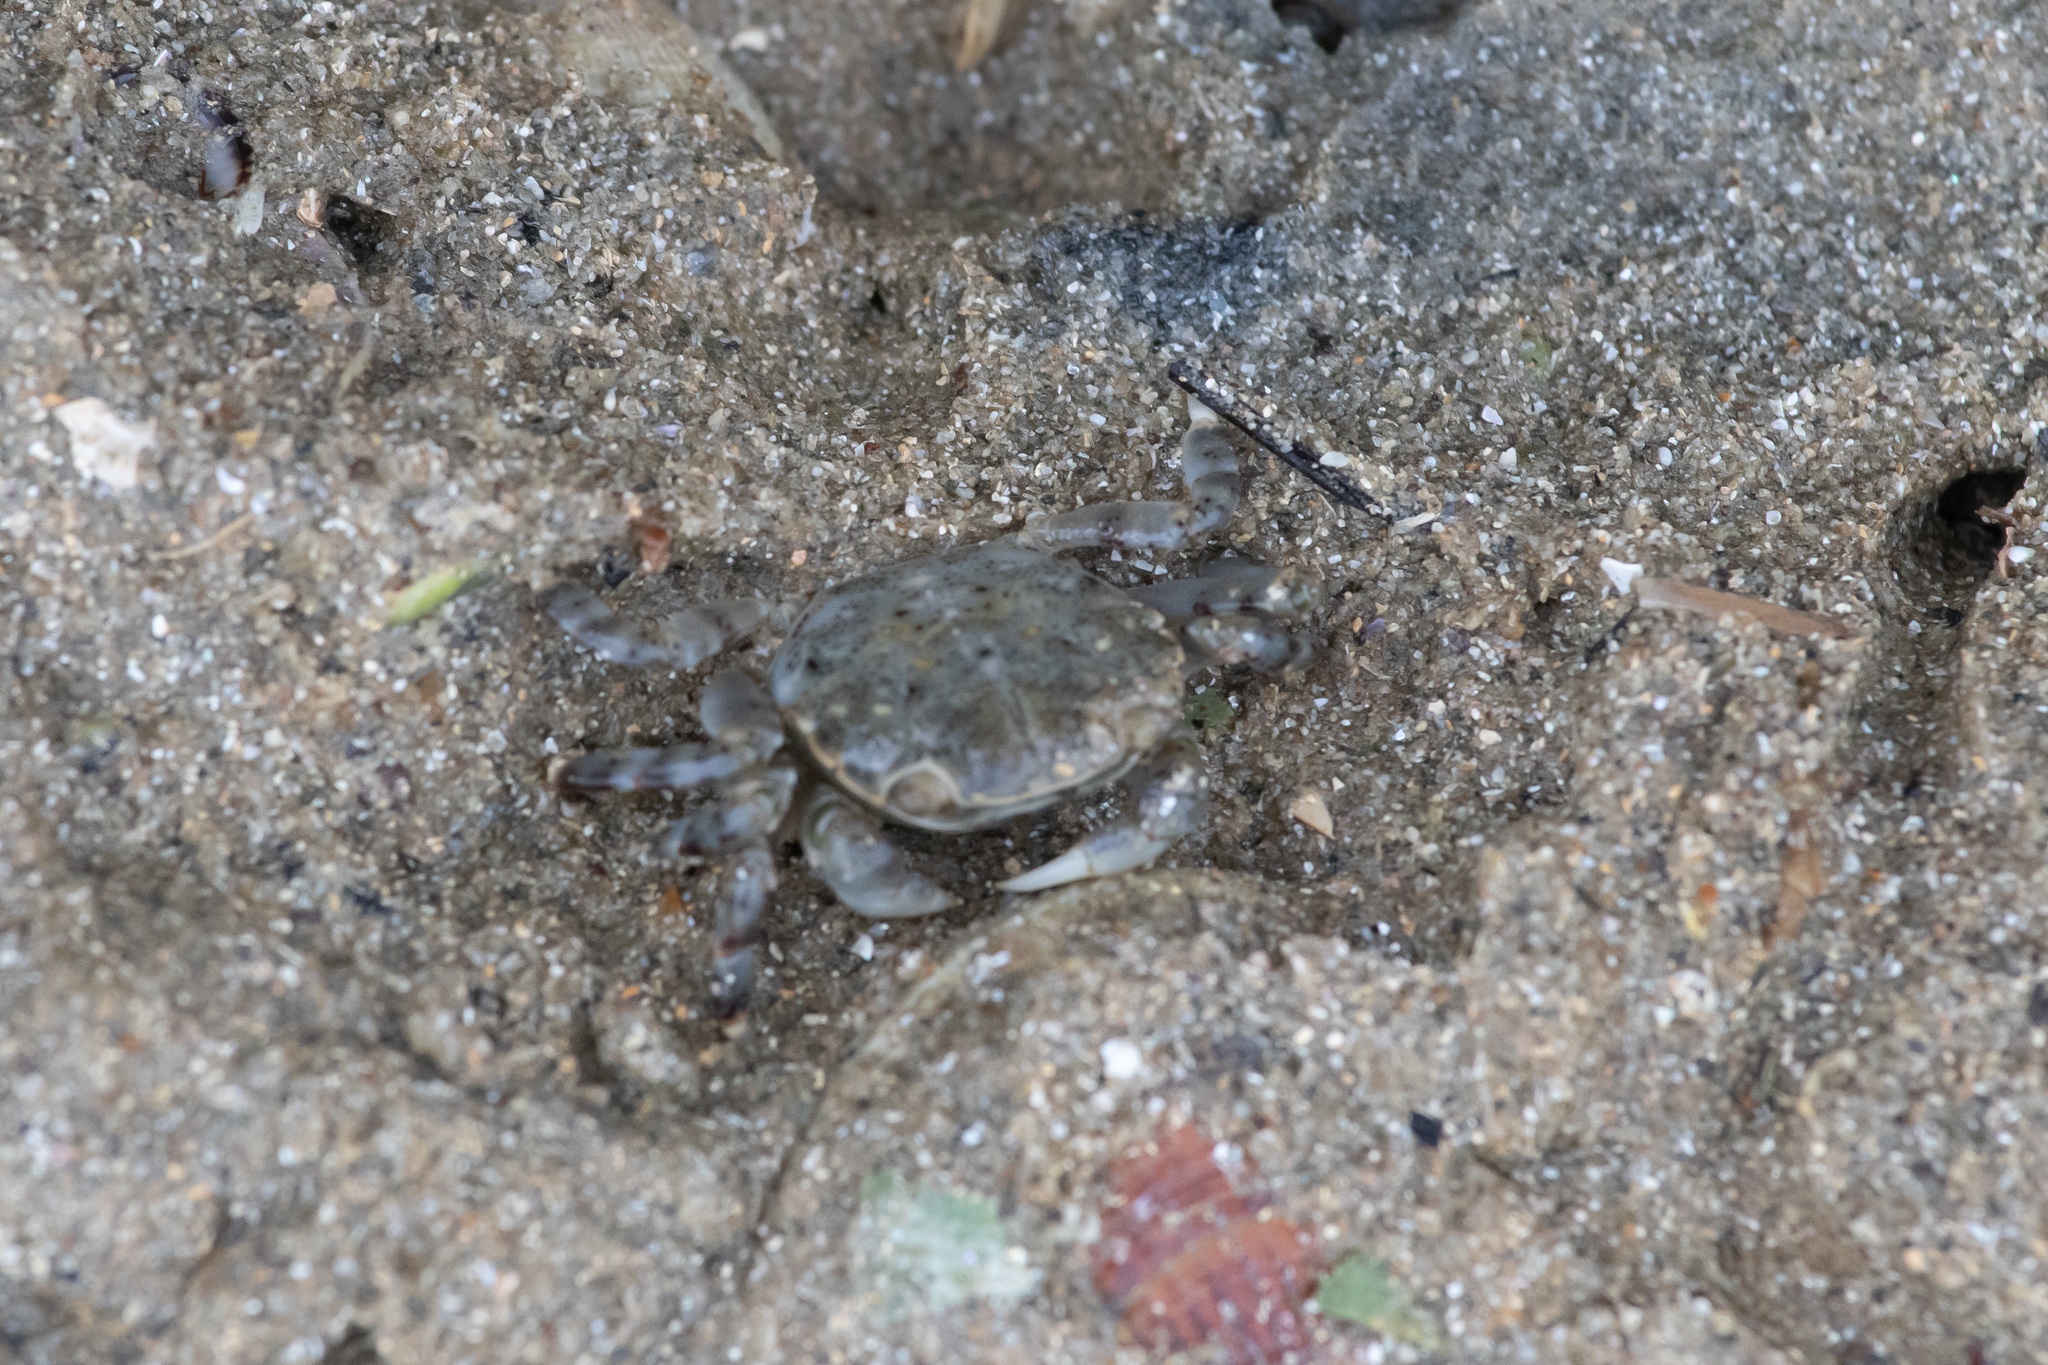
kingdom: Animalia
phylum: Arthropoda
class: Malacostraca
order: Decapoda
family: Varunidae
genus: Hemigrapsus
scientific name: Hemigrapsus sexdentatus
